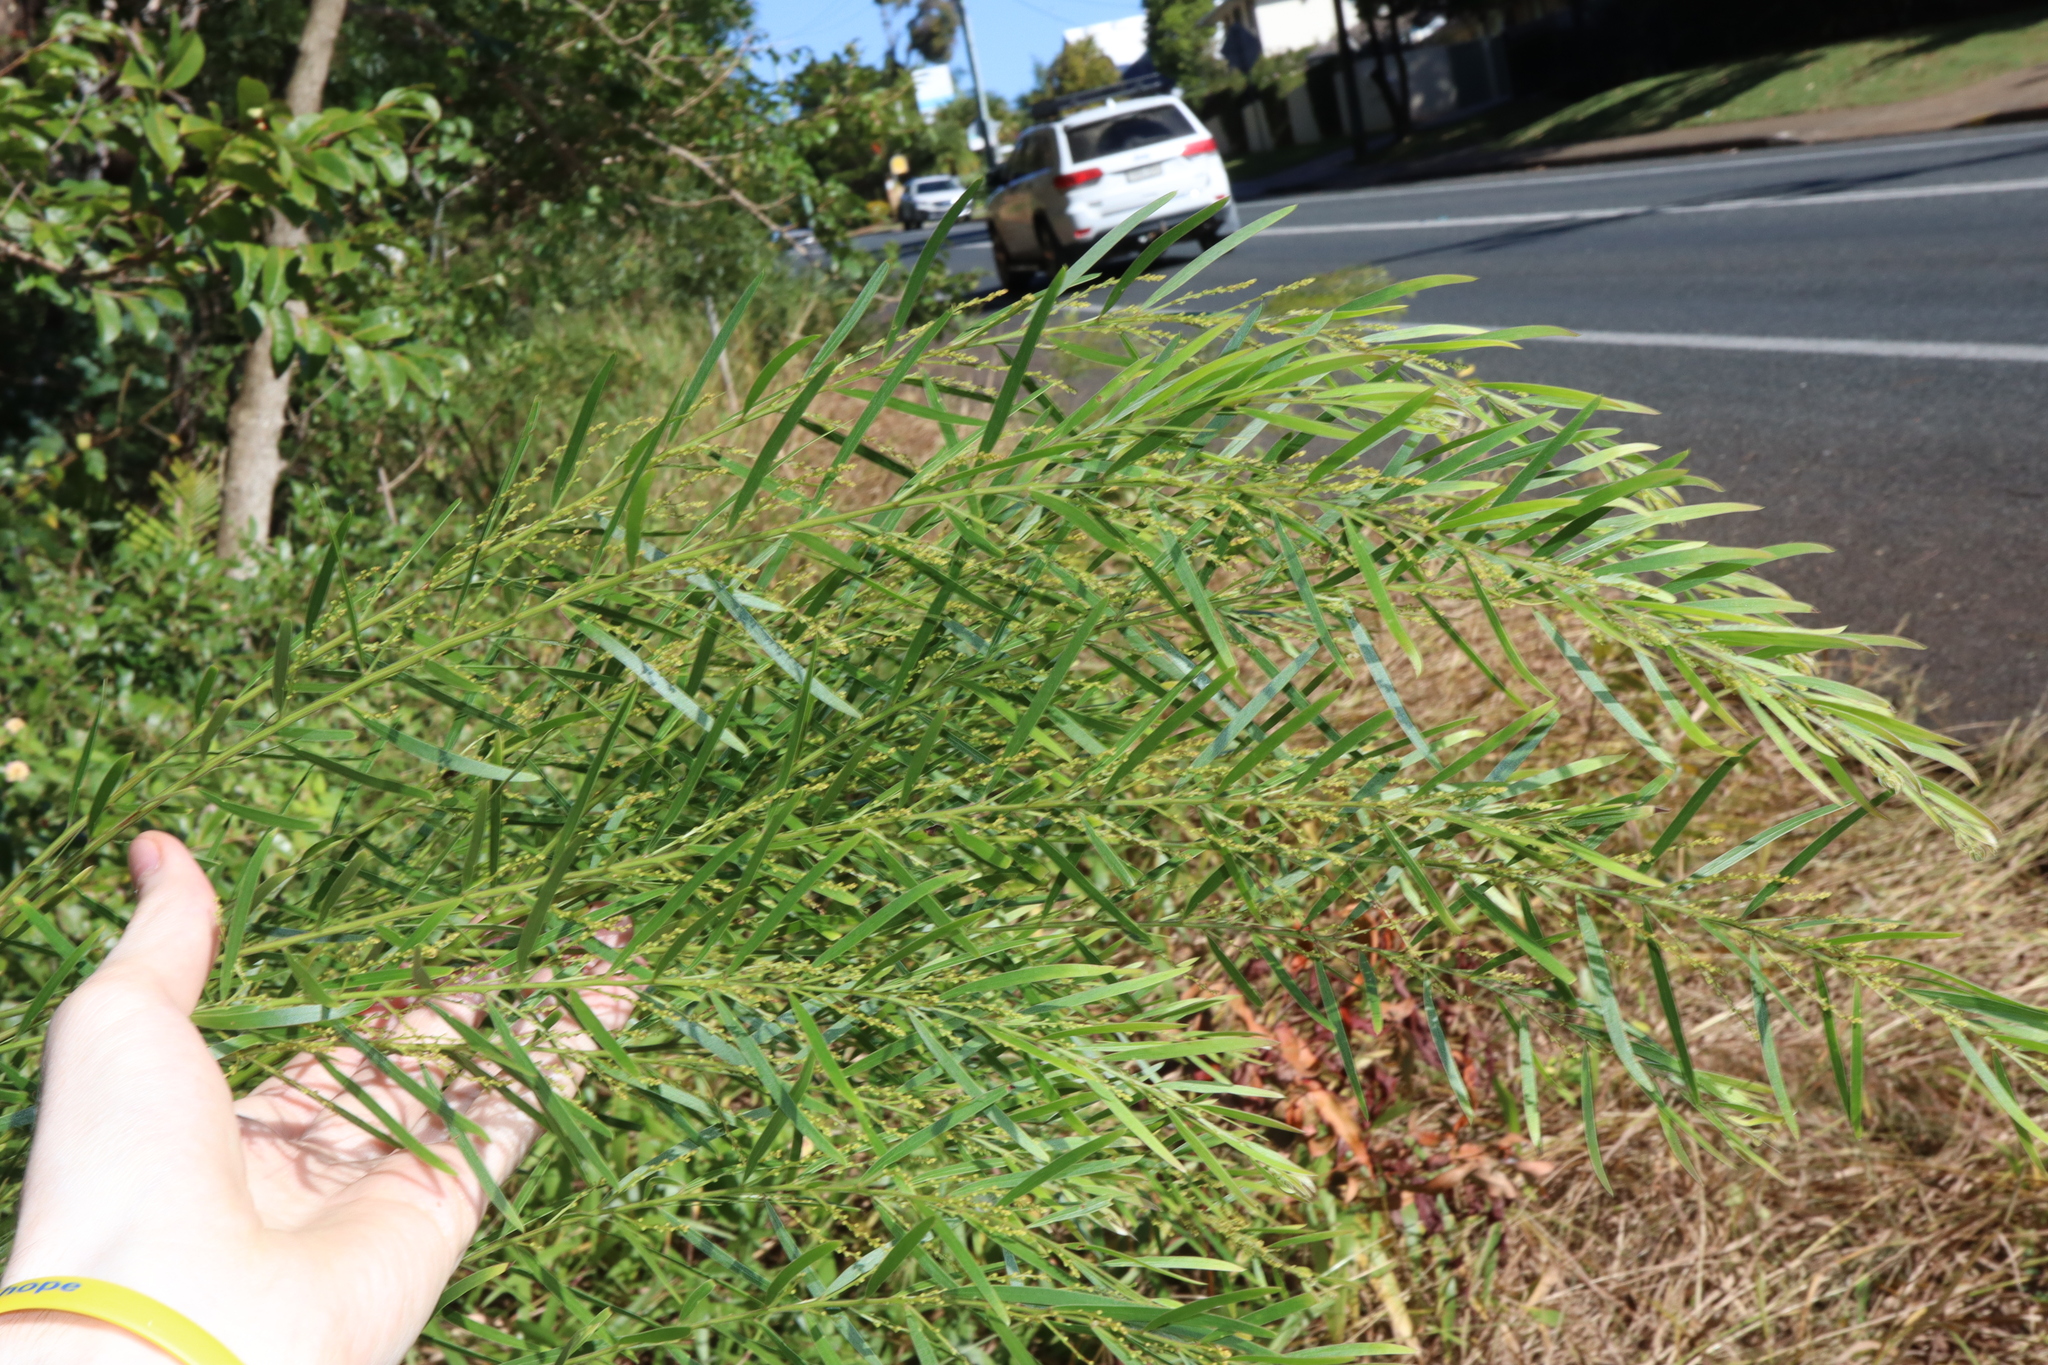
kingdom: Plantae
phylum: Tracheophyta
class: Magnoliopsida
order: Fabales
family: Fabaceae
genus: Acacia
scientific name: Acacia fimbriata
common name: Brisbane golden wattle
